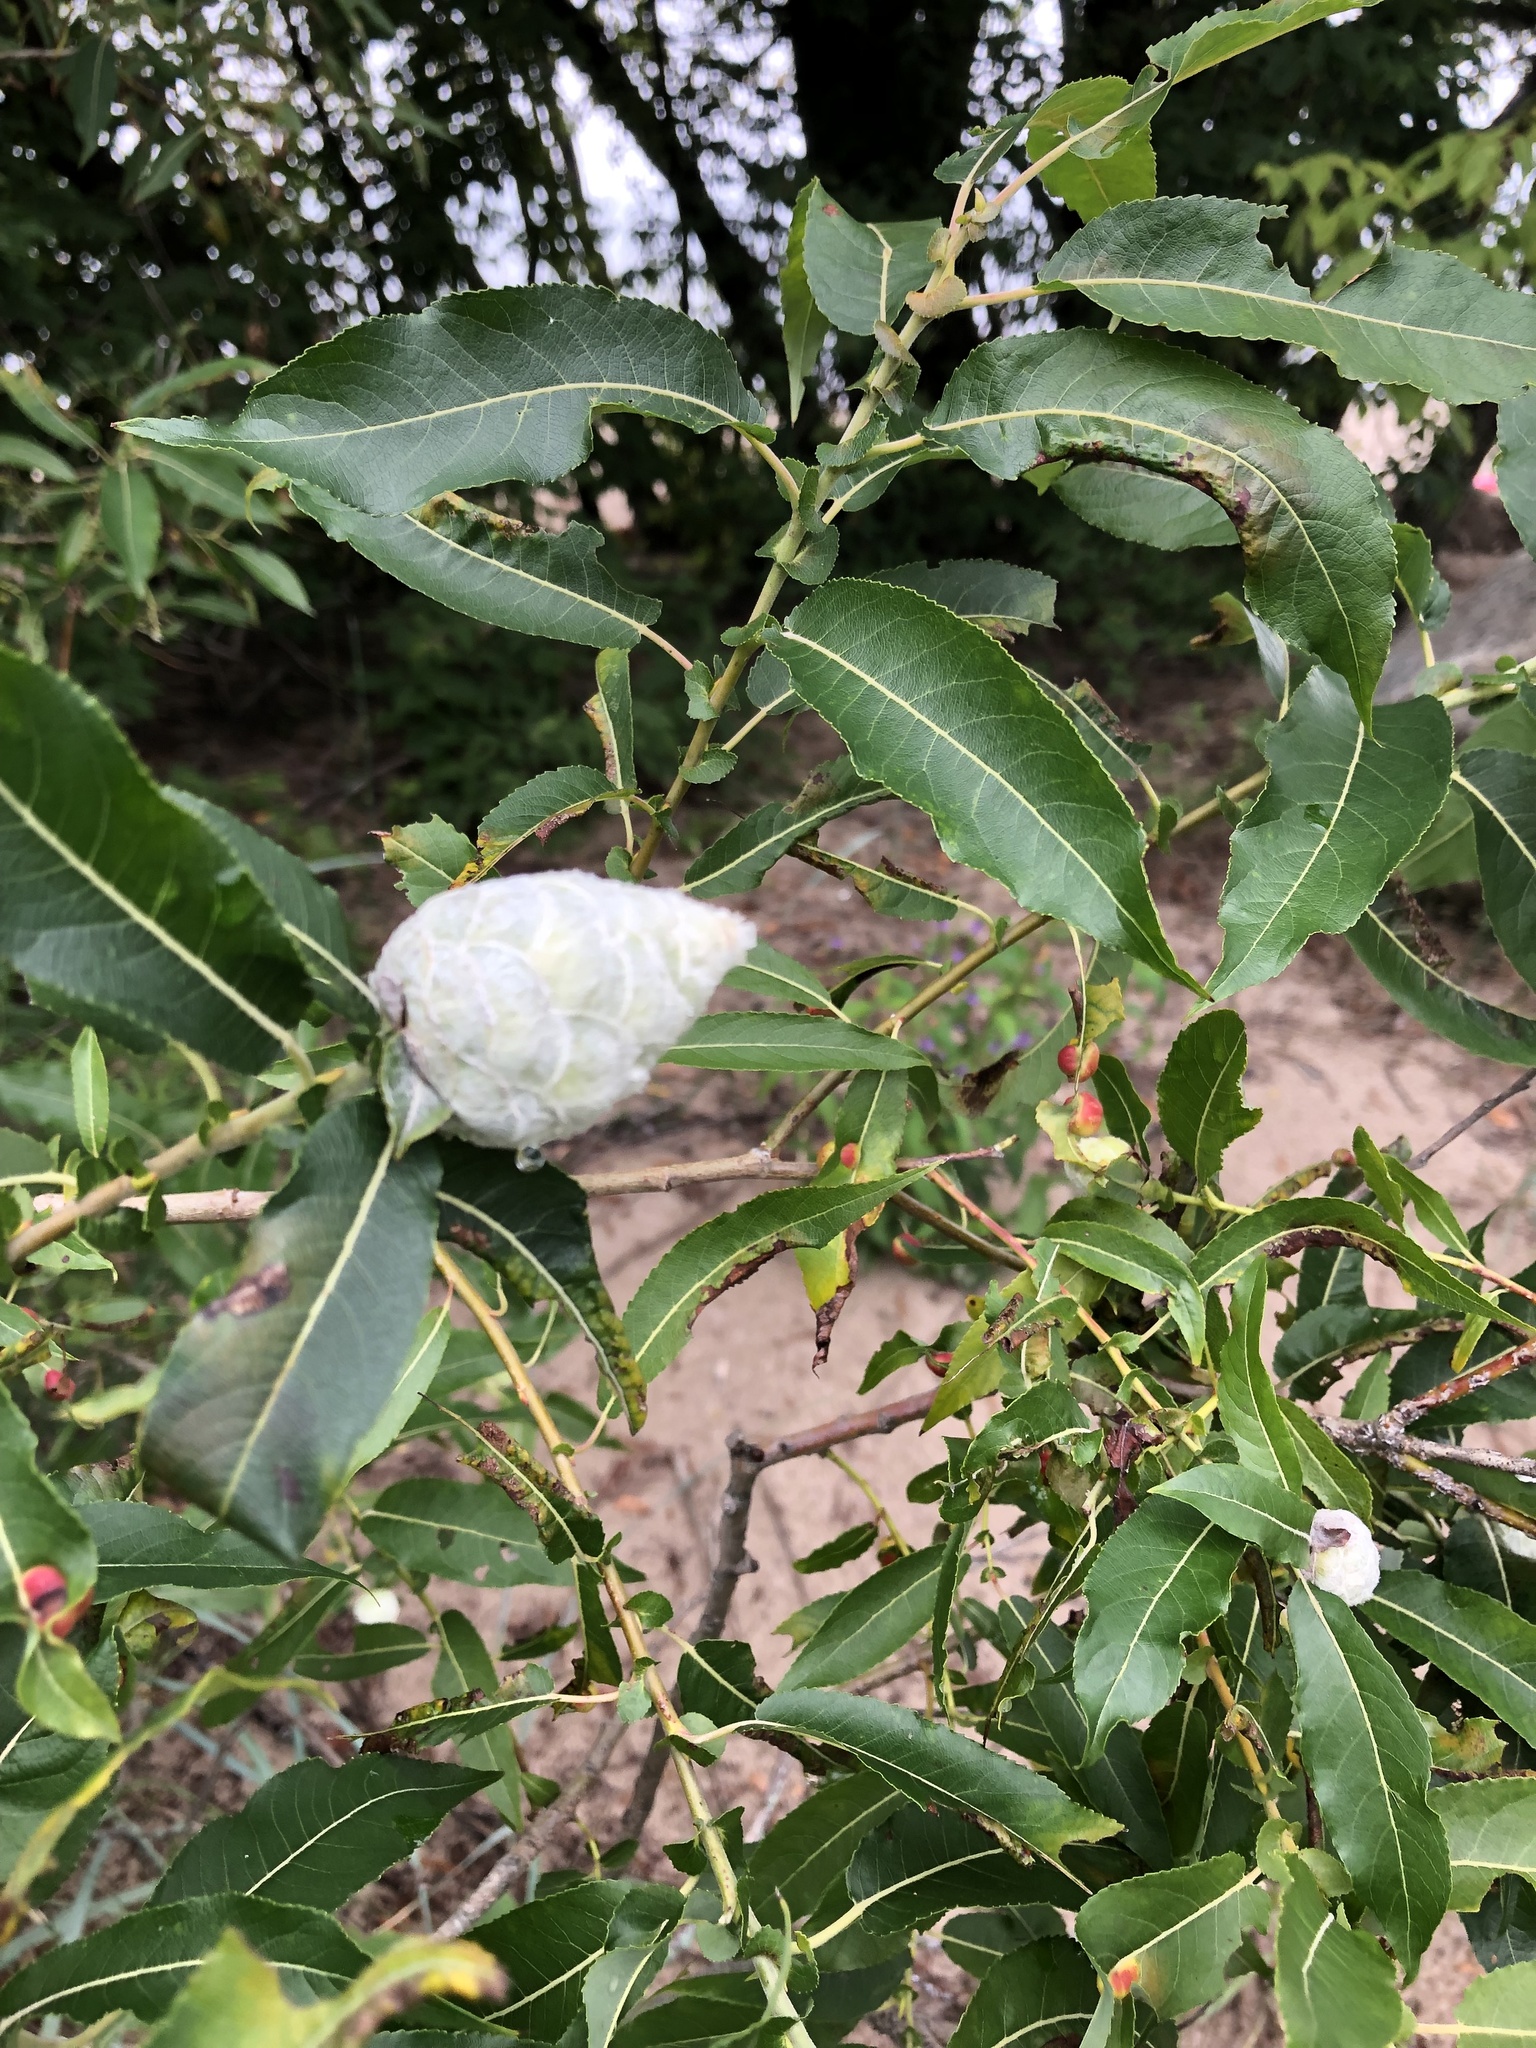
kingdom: Animalia
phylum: Arthropoda
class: Insecta
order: Diptera
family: Cecidomyiidae
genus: Rabdophaga
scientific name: Rabdophaga strobiloides
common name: Willow pinecone gall midge
